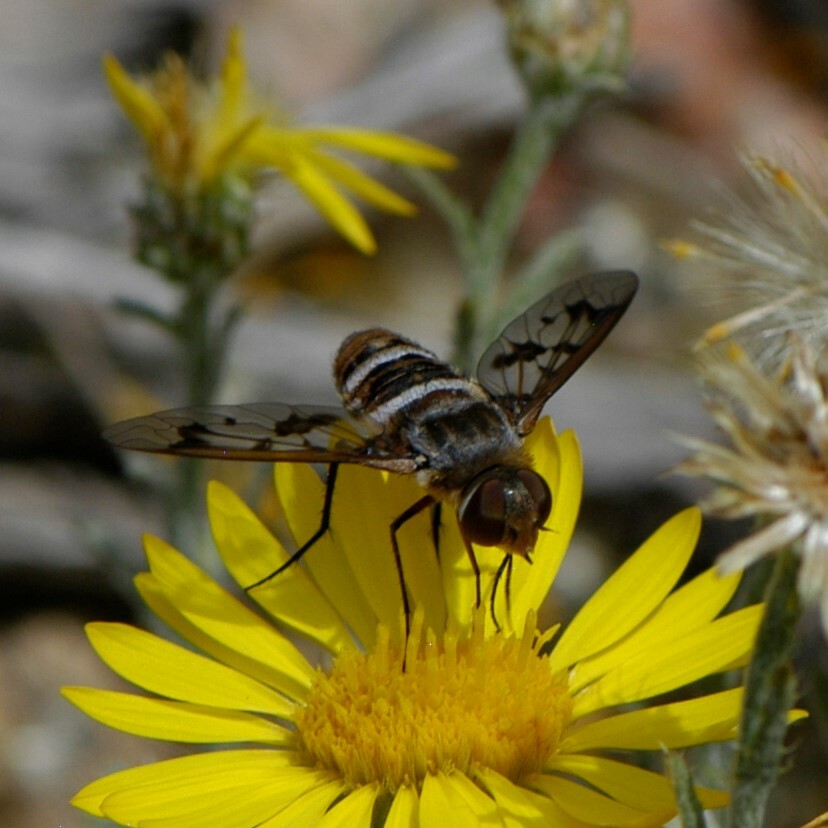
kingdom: Animalia
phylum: Arthropoda
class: Insecta
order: Diptera
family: Bombyliidae
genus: Exoprosopa
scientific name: Exoprosopa butleri
